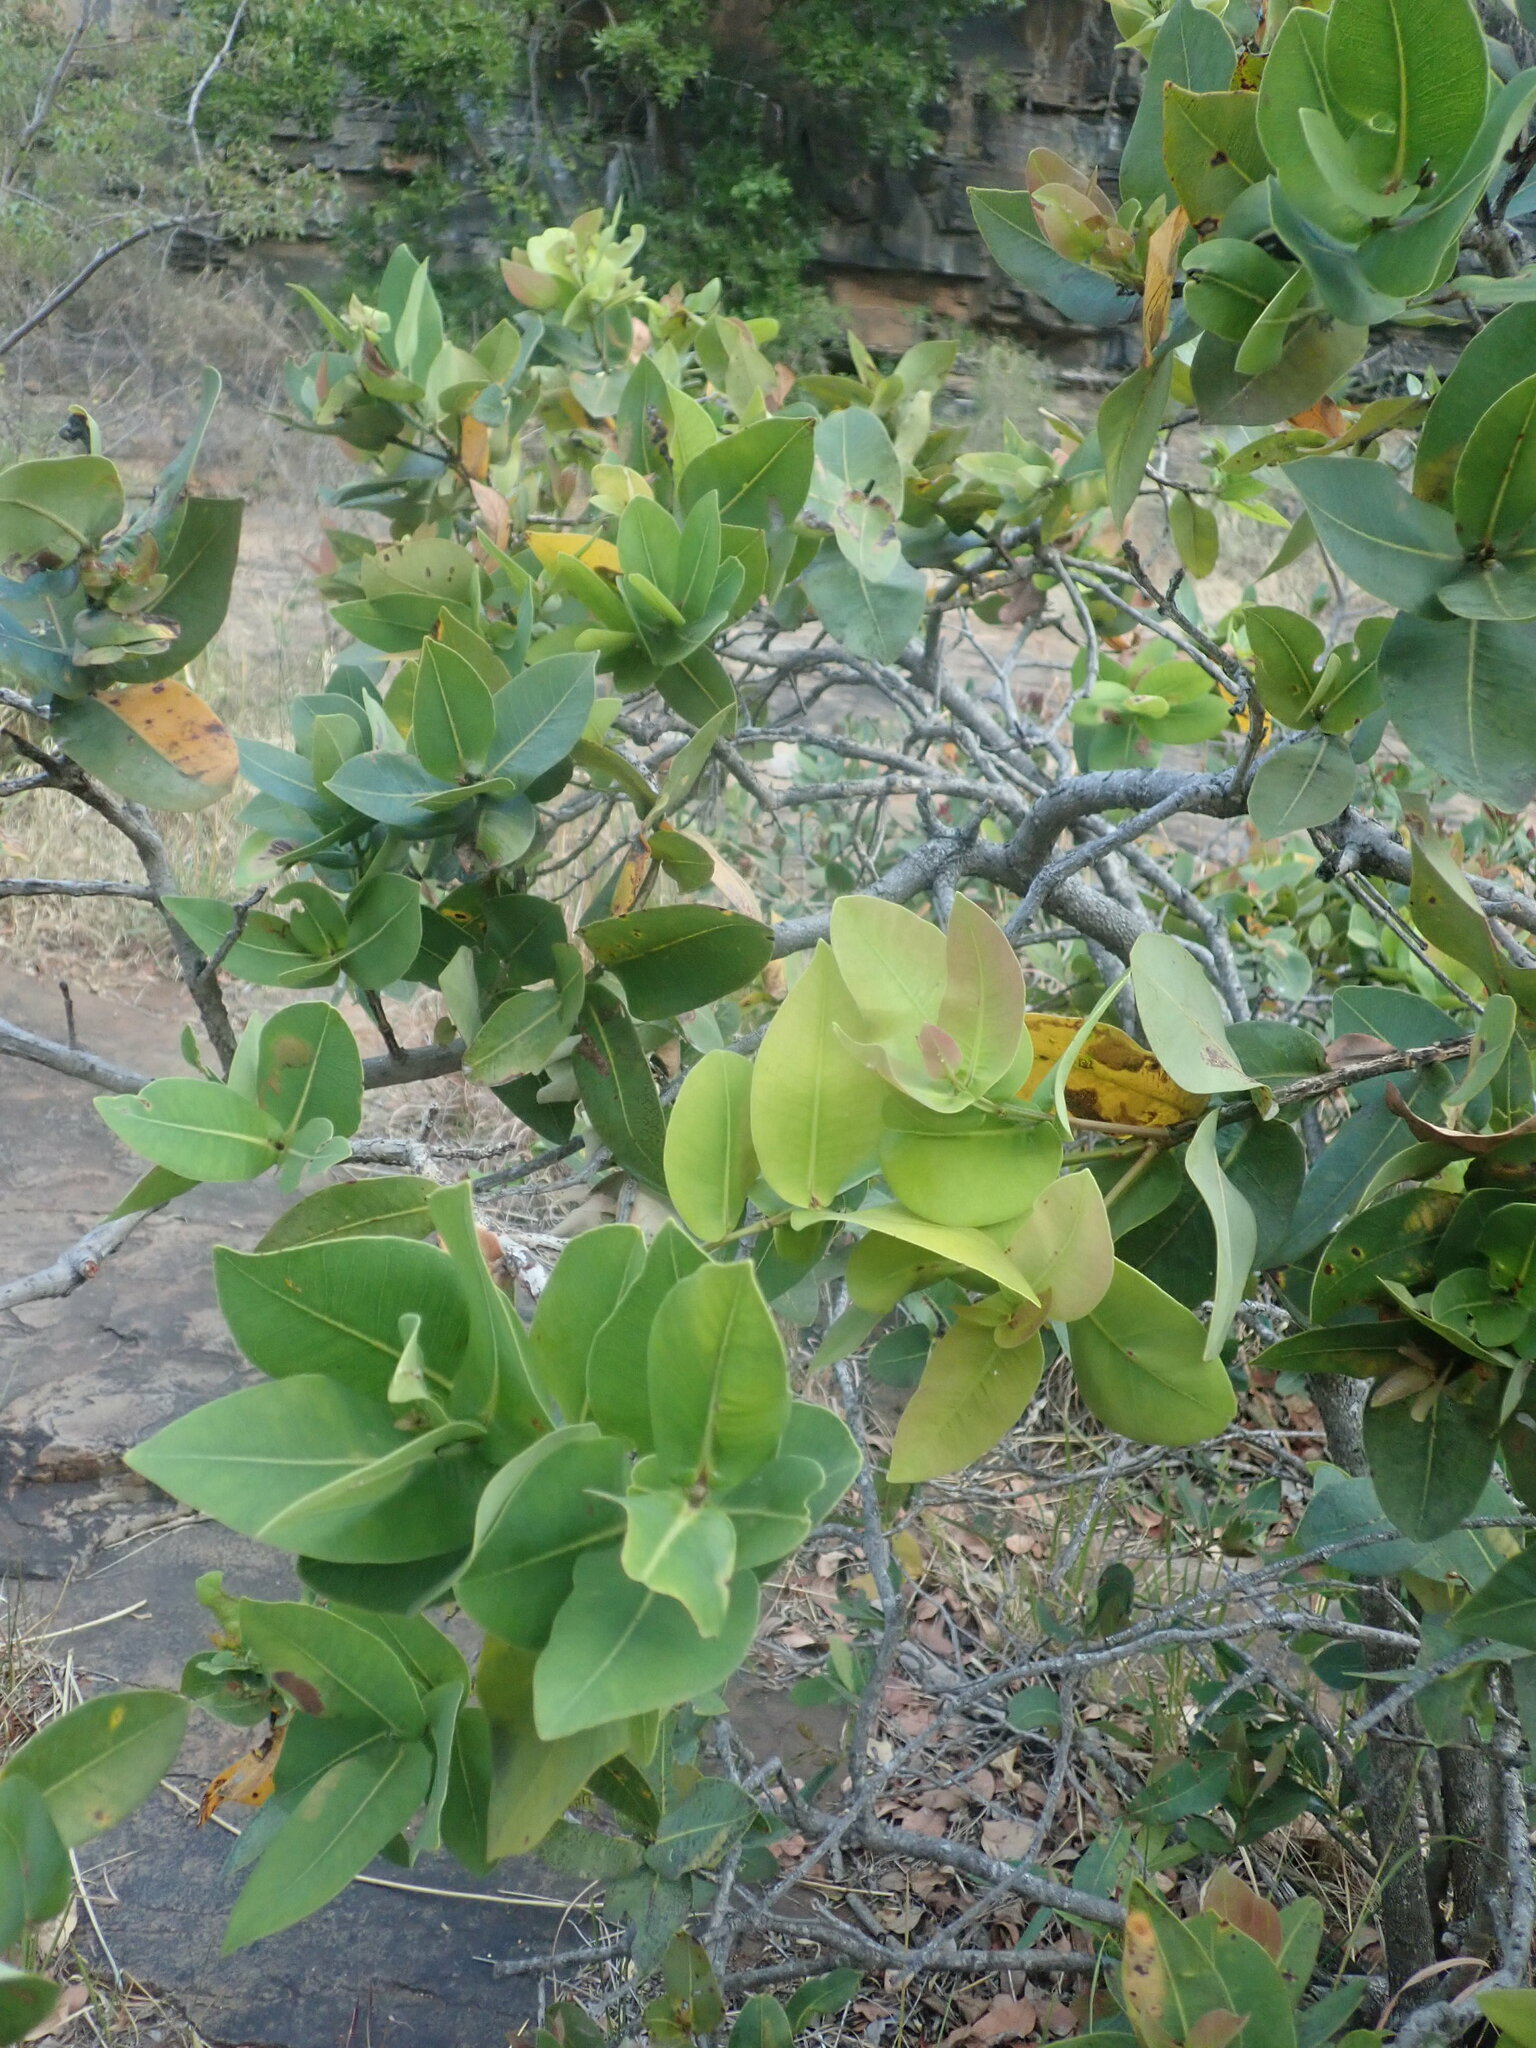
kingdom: Plantae
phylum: Tracheophyta
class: Magnoliopsida
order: Myrtales
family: Myrtaceae
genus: Syzygium
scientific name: Syzygium cordatum
